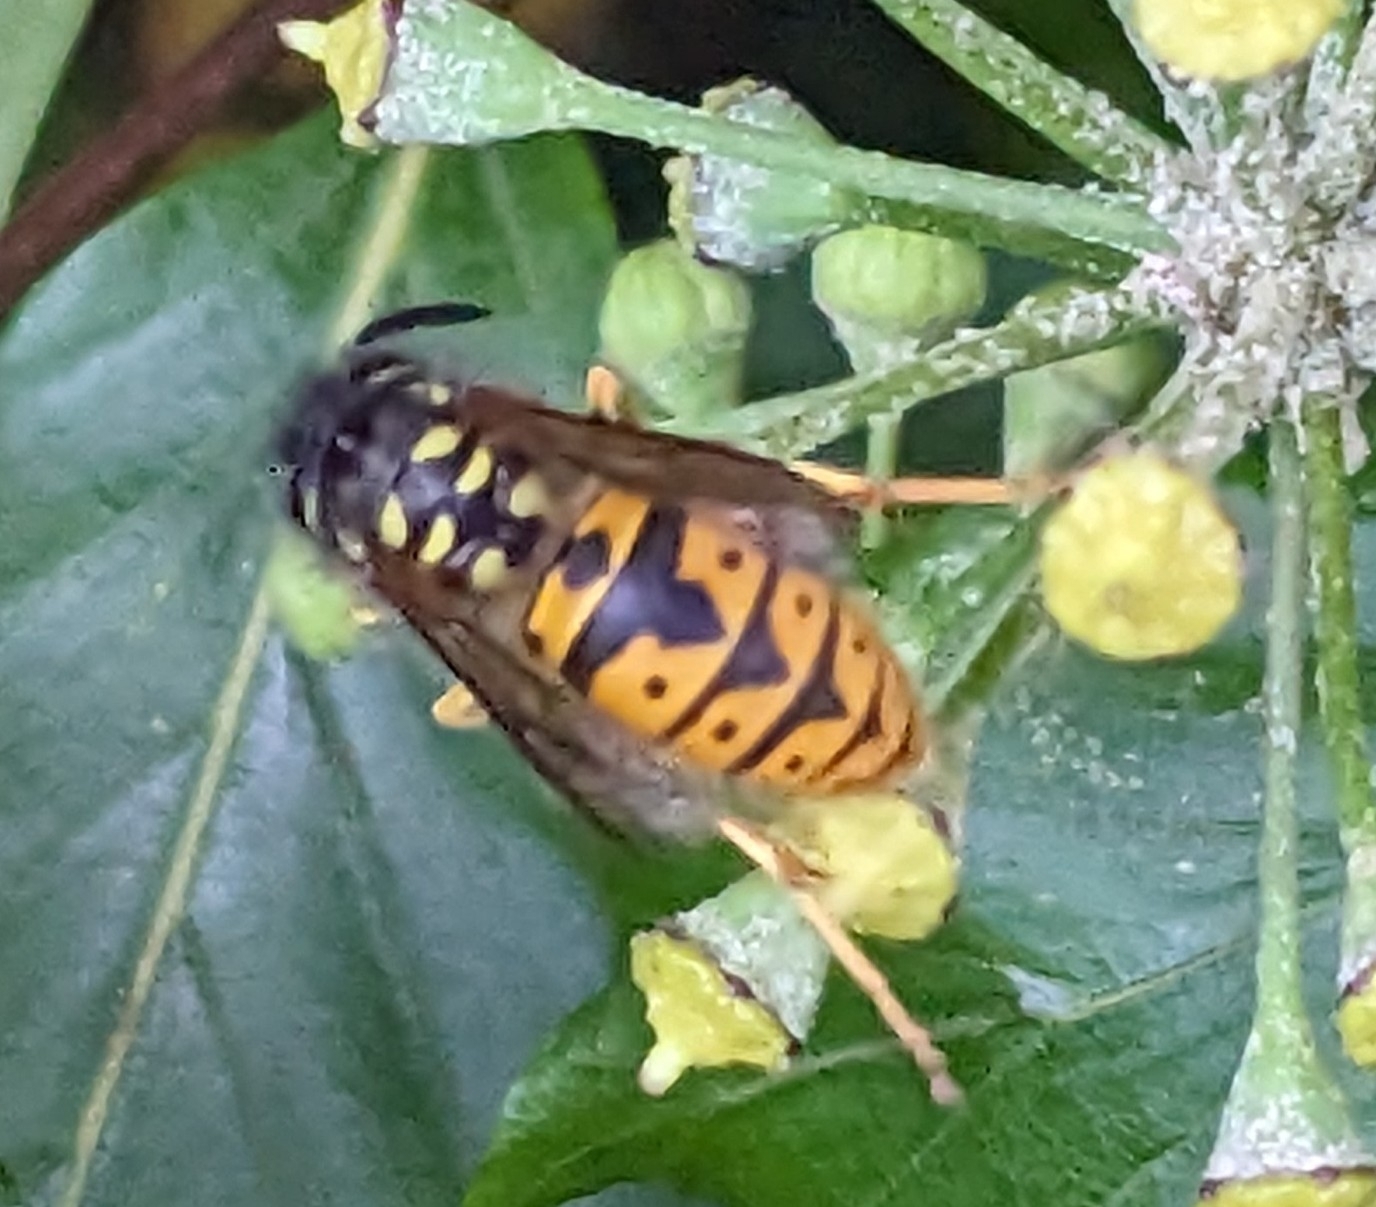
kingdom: Animalia
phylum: Arthropoda
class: Insecta
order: Hymenoptera
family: Vespidae
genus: Vespula
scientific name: Vespula germanica
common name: German wasp
